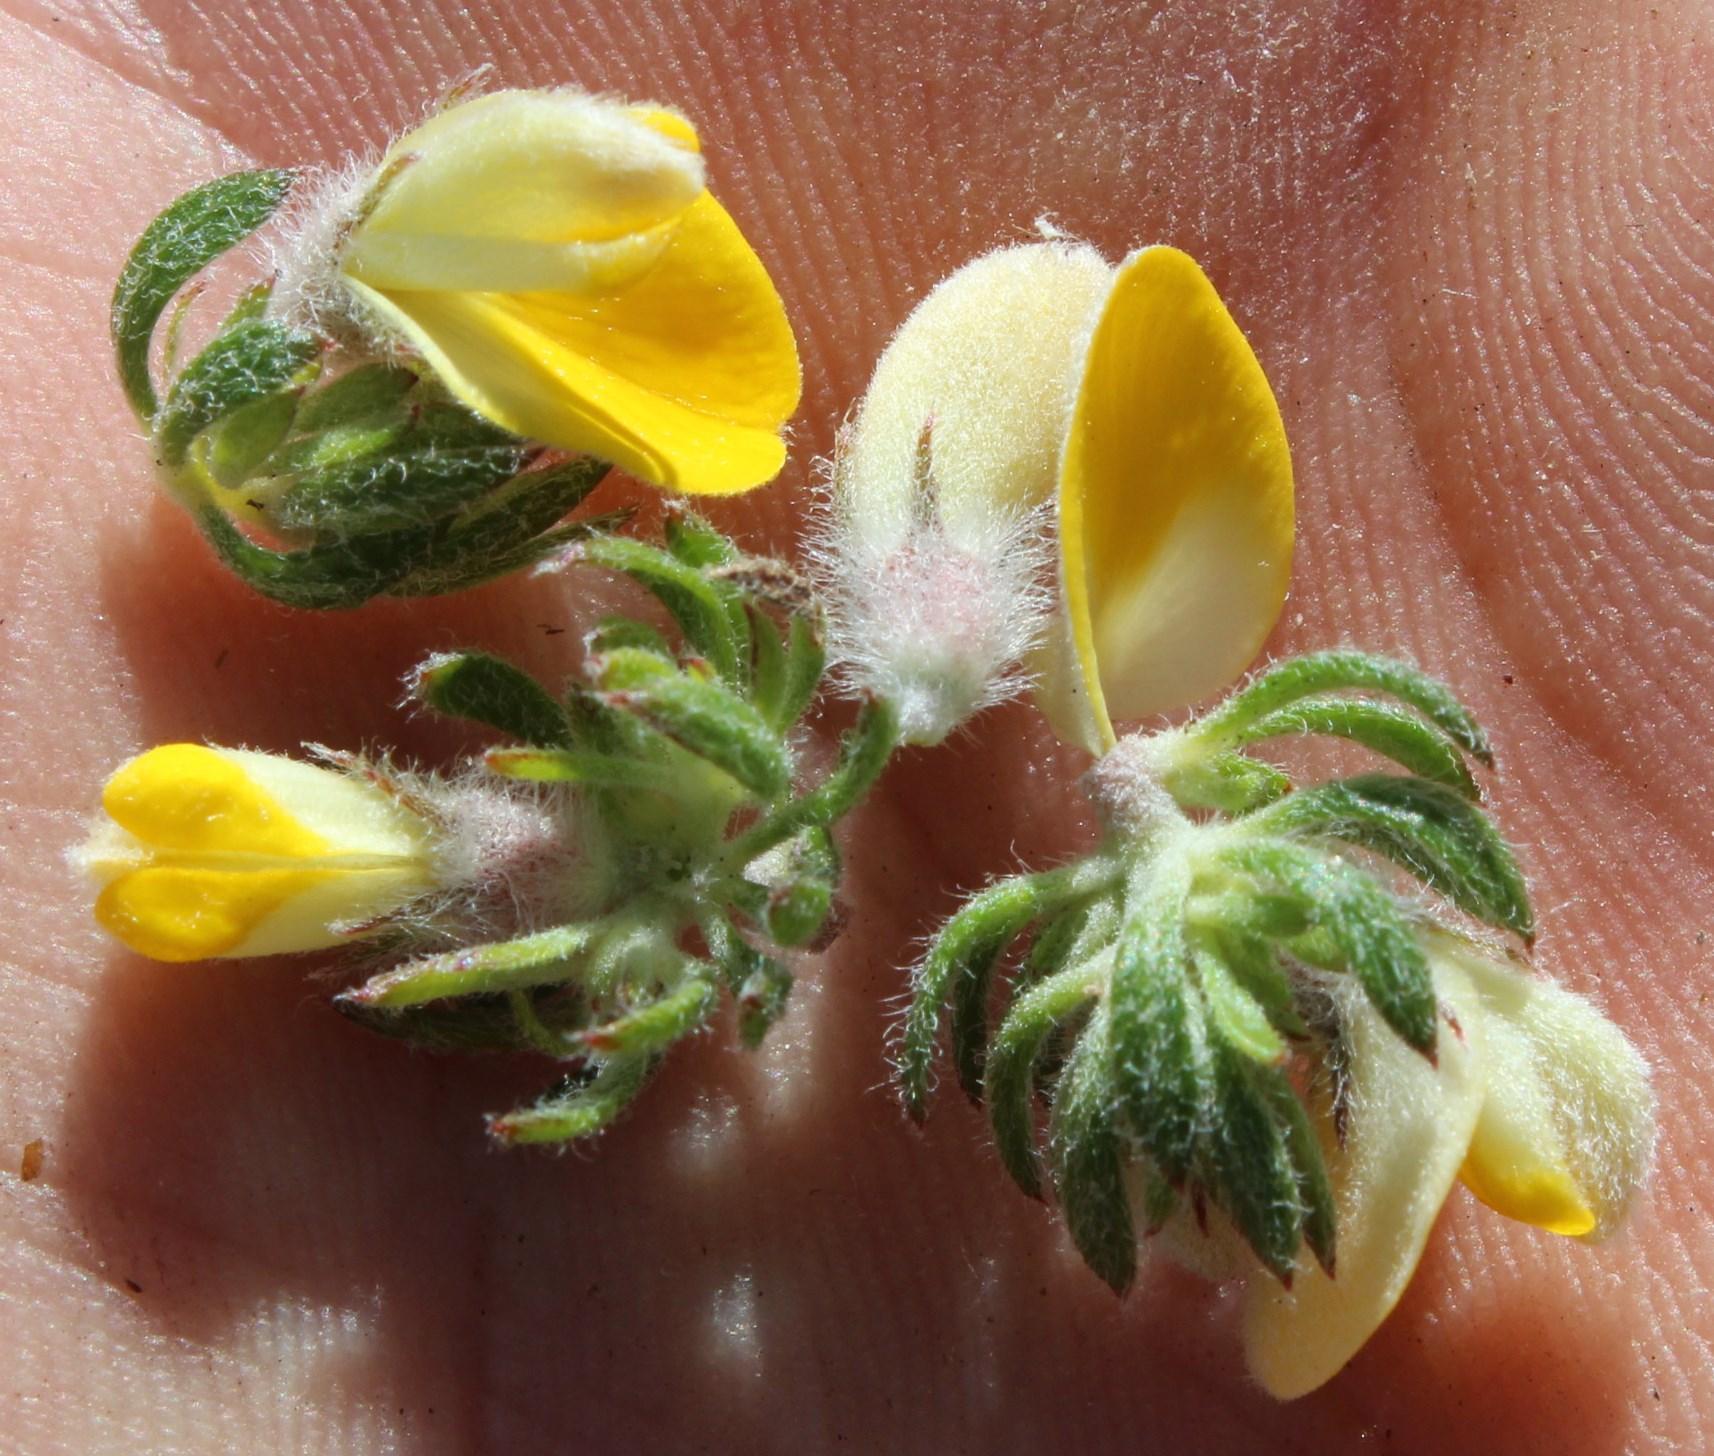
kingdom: Plantae
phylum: Tracheophyta
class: Magnoliopsida
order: Fabales
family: Fabaceae
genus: Aspalathus
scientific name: Aspalathus stenophylla
